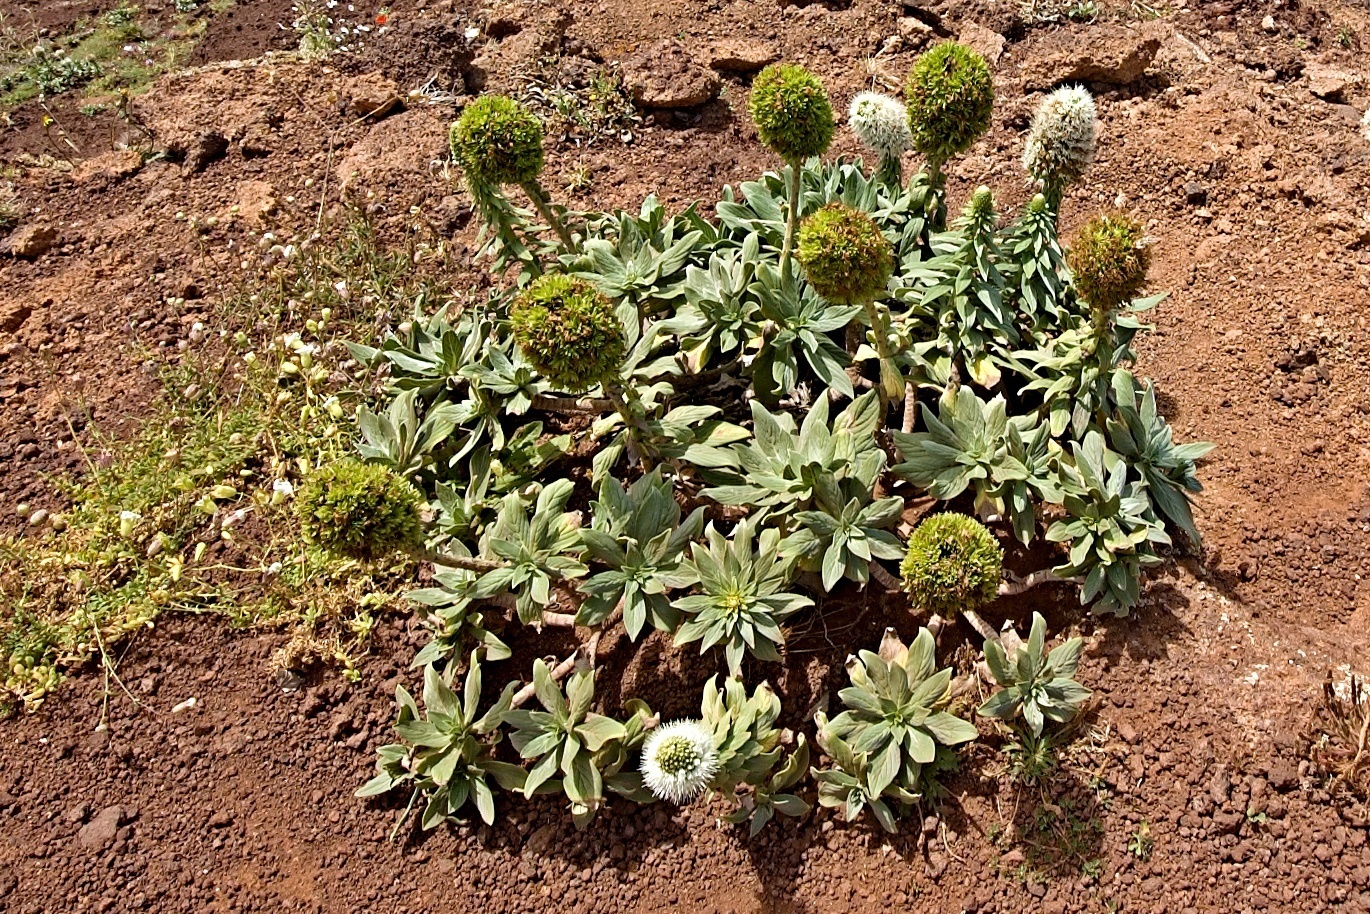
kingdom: Plantae
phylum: Tracheophyta
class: Magnoliopsida
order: Boraginales
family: Boraginaceae
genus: Echium
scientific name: Echium nervosum
